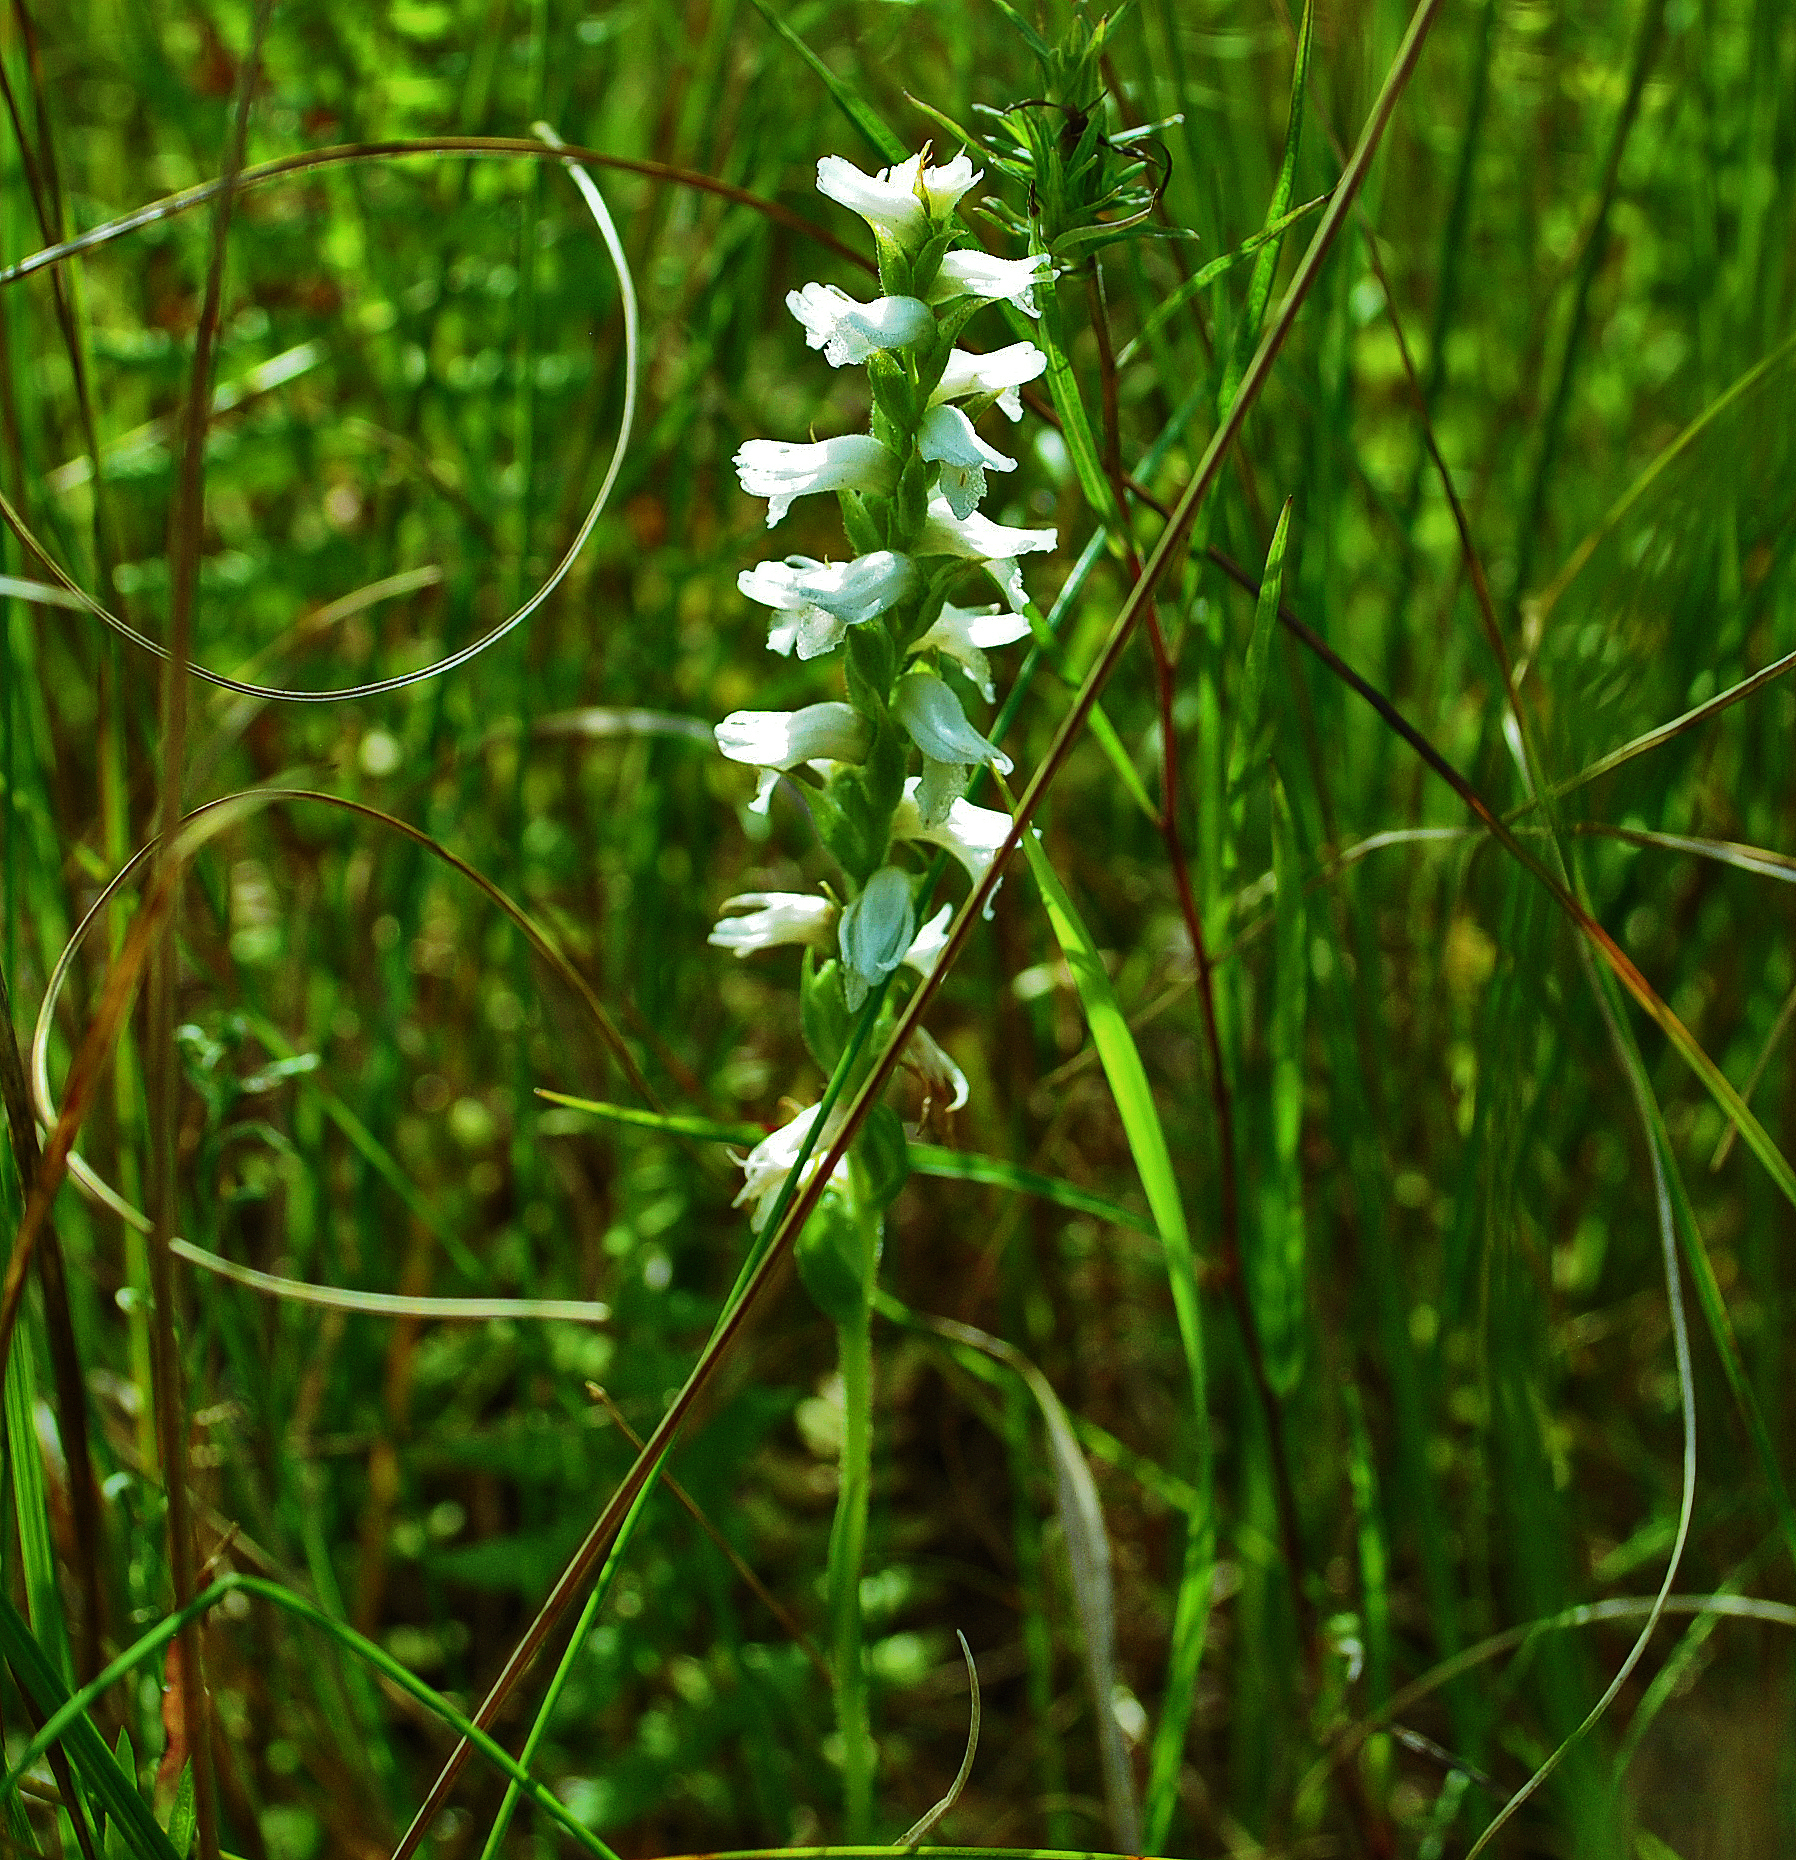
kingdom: Plantae
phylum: Tracheophyta
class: Liliopsida
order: Asparagales
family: Orchidaceae
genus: Spiranthes
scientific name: Spiranthes incurva
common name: Sphinx ladies'-tresses
